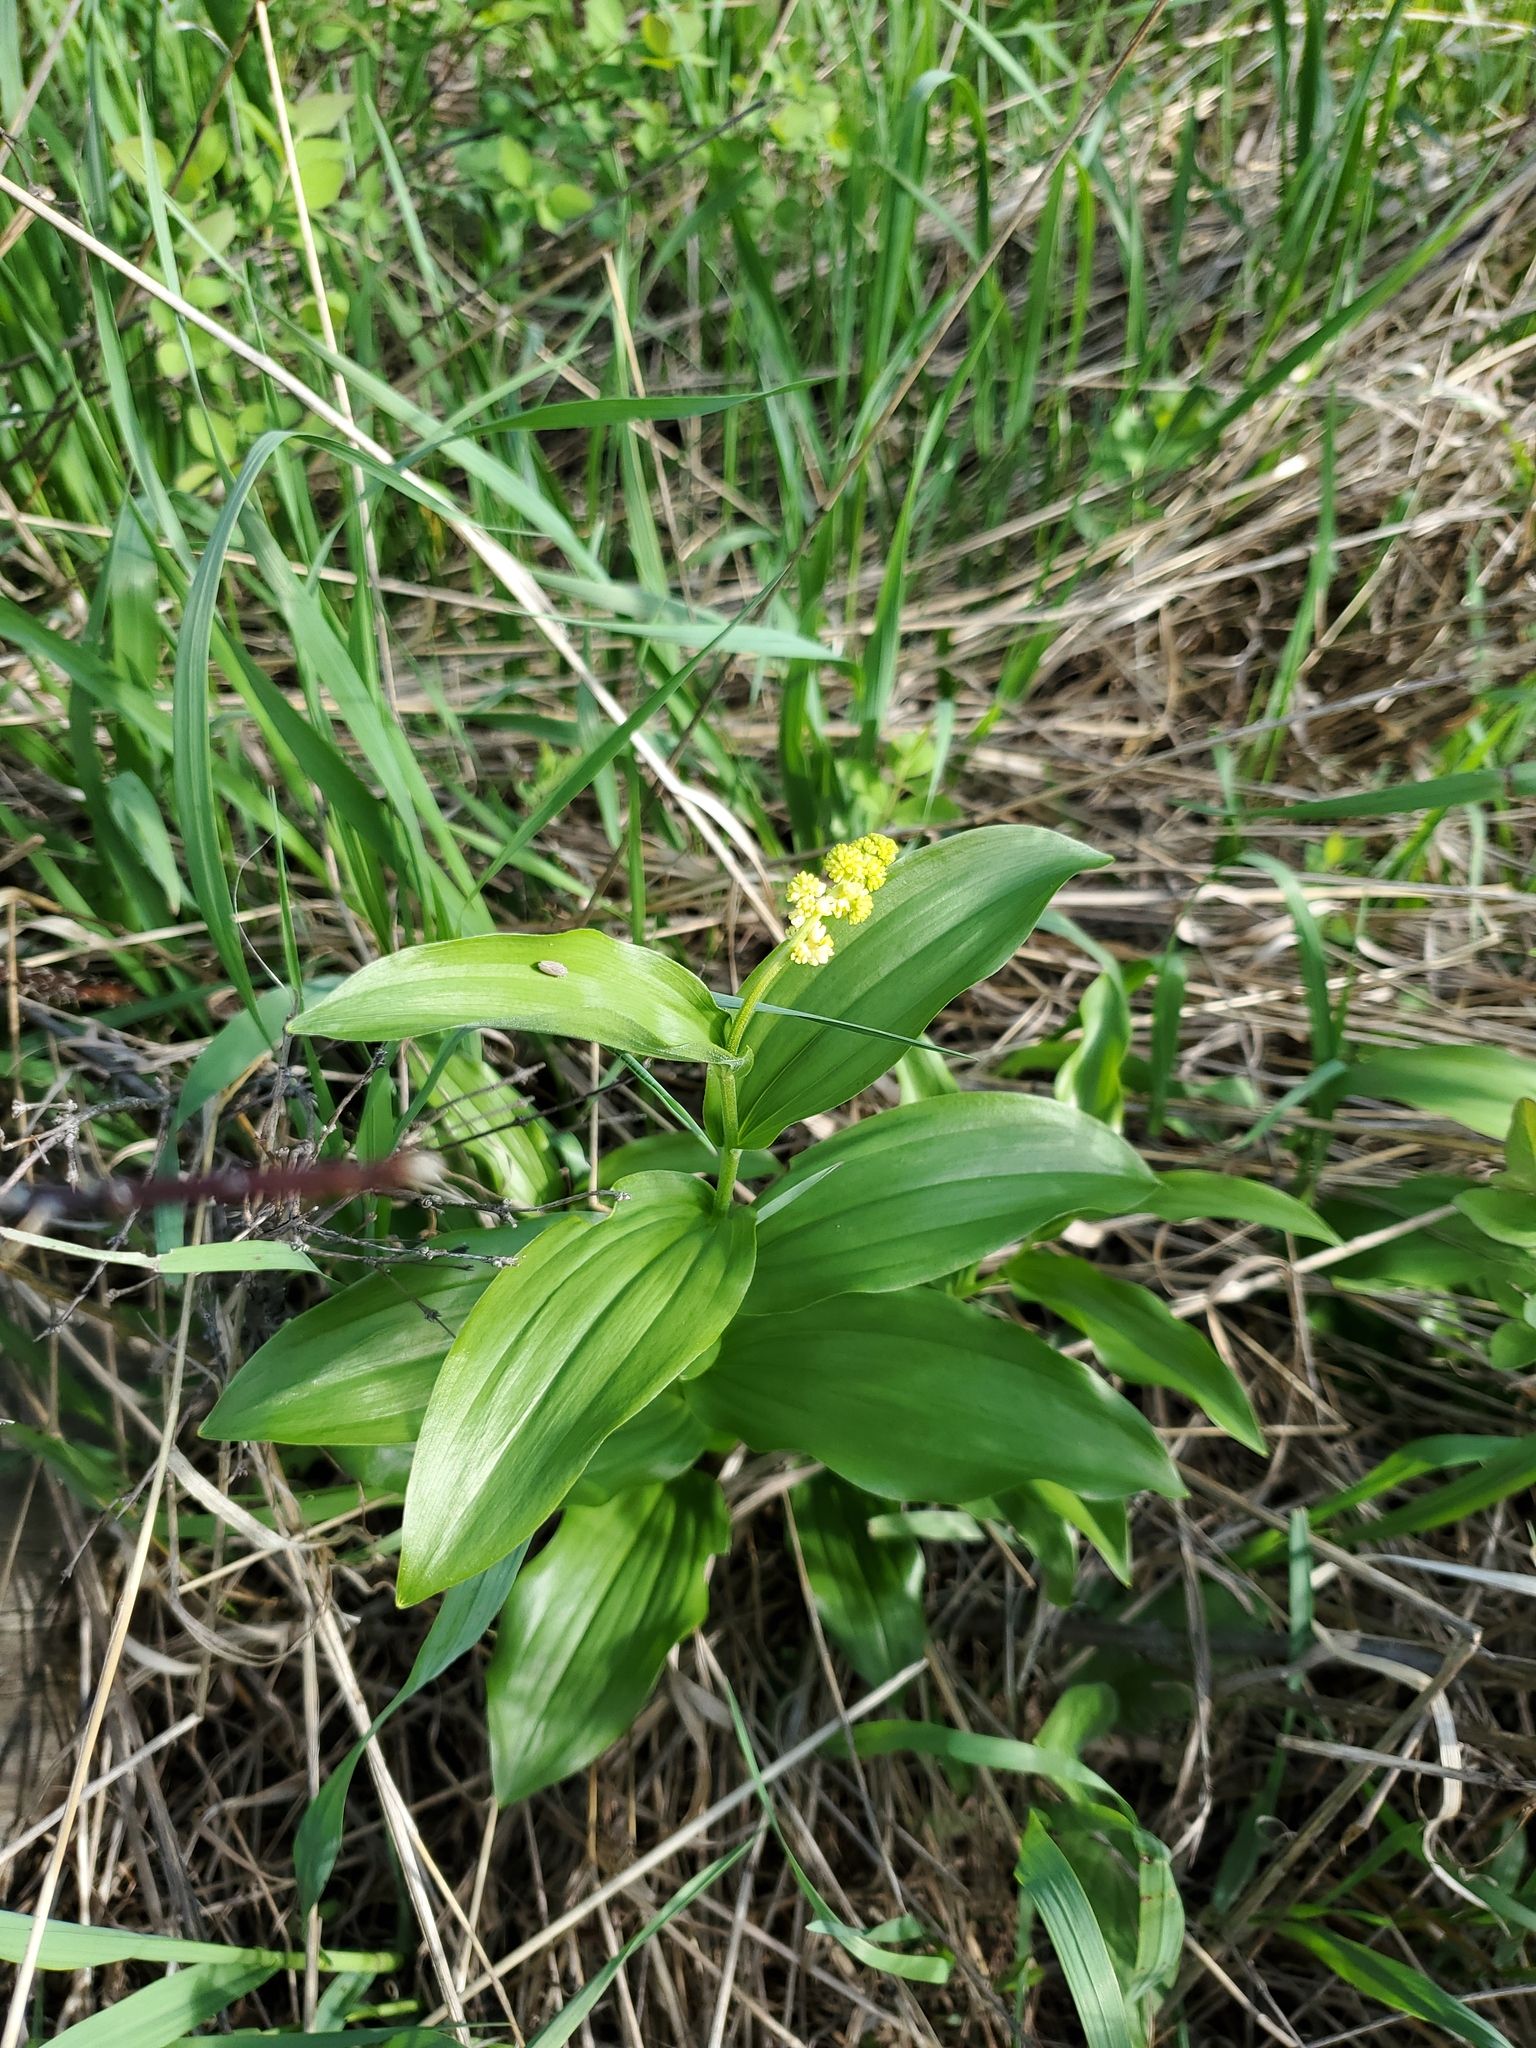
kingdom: Plantae
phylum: Tracheophyta
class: Liliopsida
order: Asparagales
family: Asparagaceae
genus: Maianthemum
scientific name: Maianthemum racemosum
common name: False spikenard
